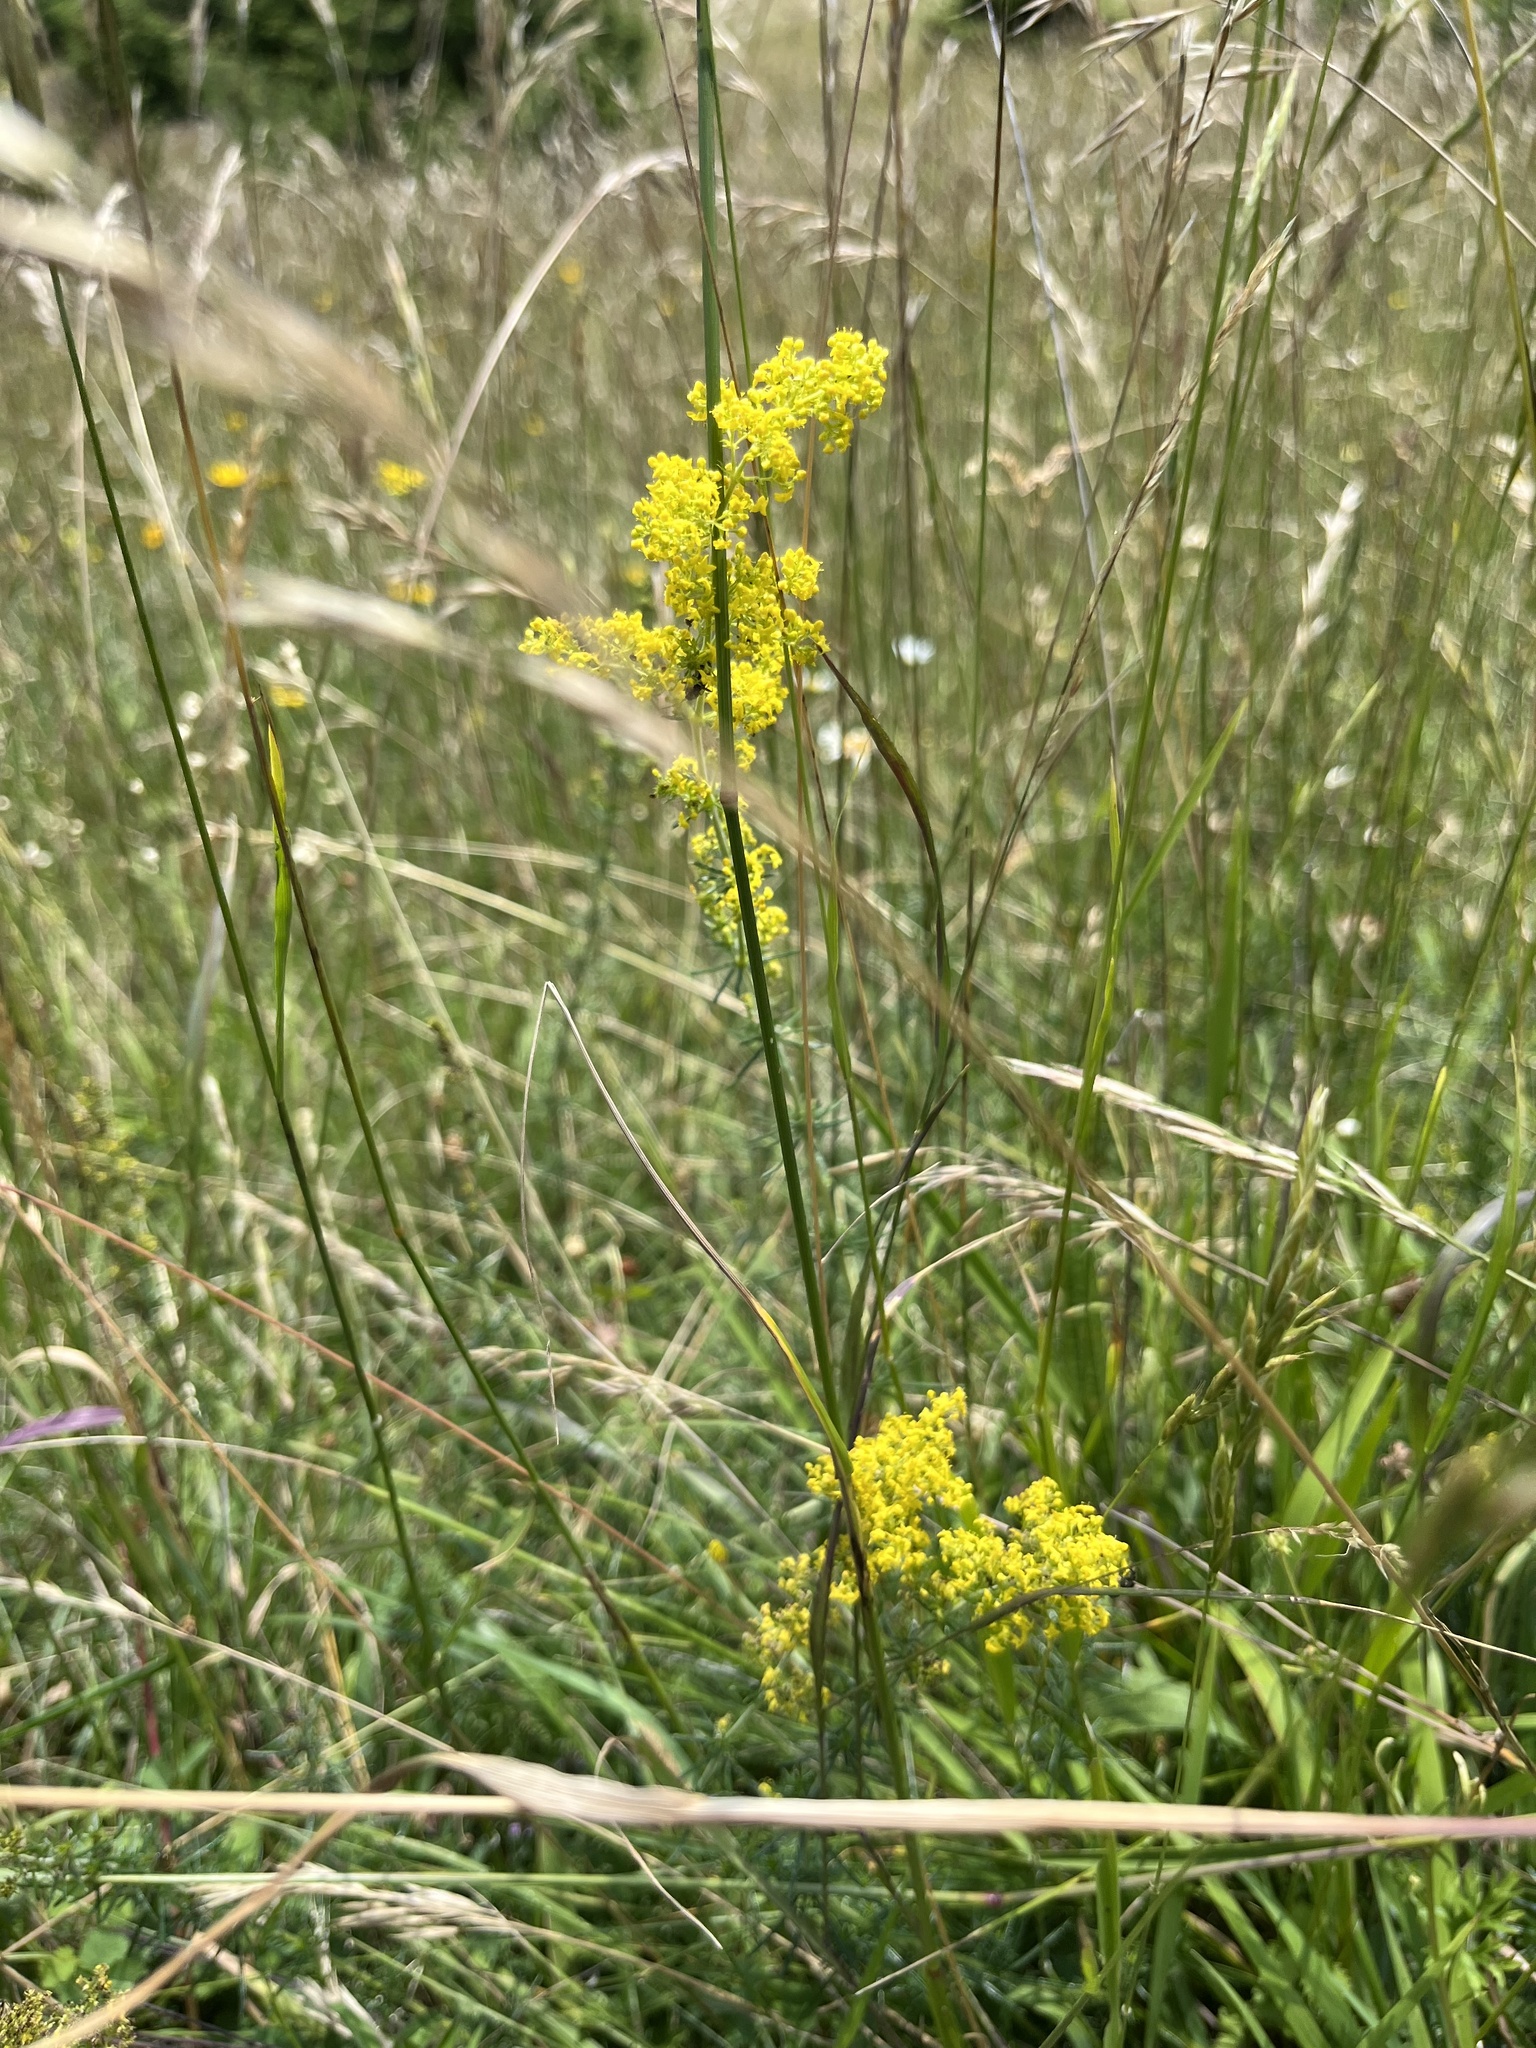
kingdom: Plantae
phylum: Tracheophyta
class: Magnoliopsida
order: Gentianales
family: Rubiaceae
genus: Galium
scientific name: Galium verum
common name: Lady's bedstraw
